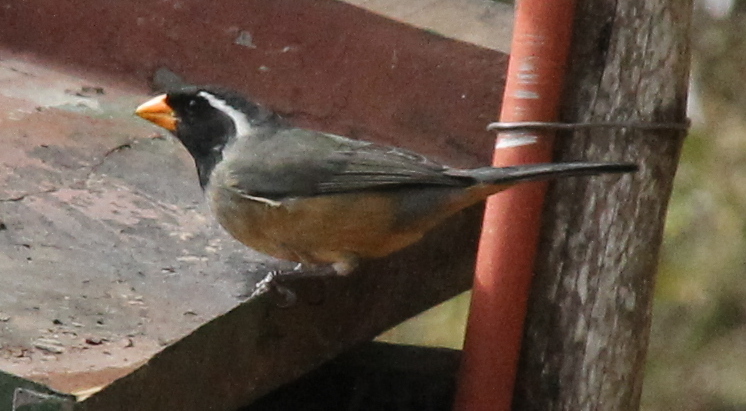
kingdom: Animalia
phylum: Chordata
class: Aves
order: Passeriformes
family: Thraupidae
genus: Saltator
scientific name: Saltator aurantiirostris
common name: Golden-billed saltator
